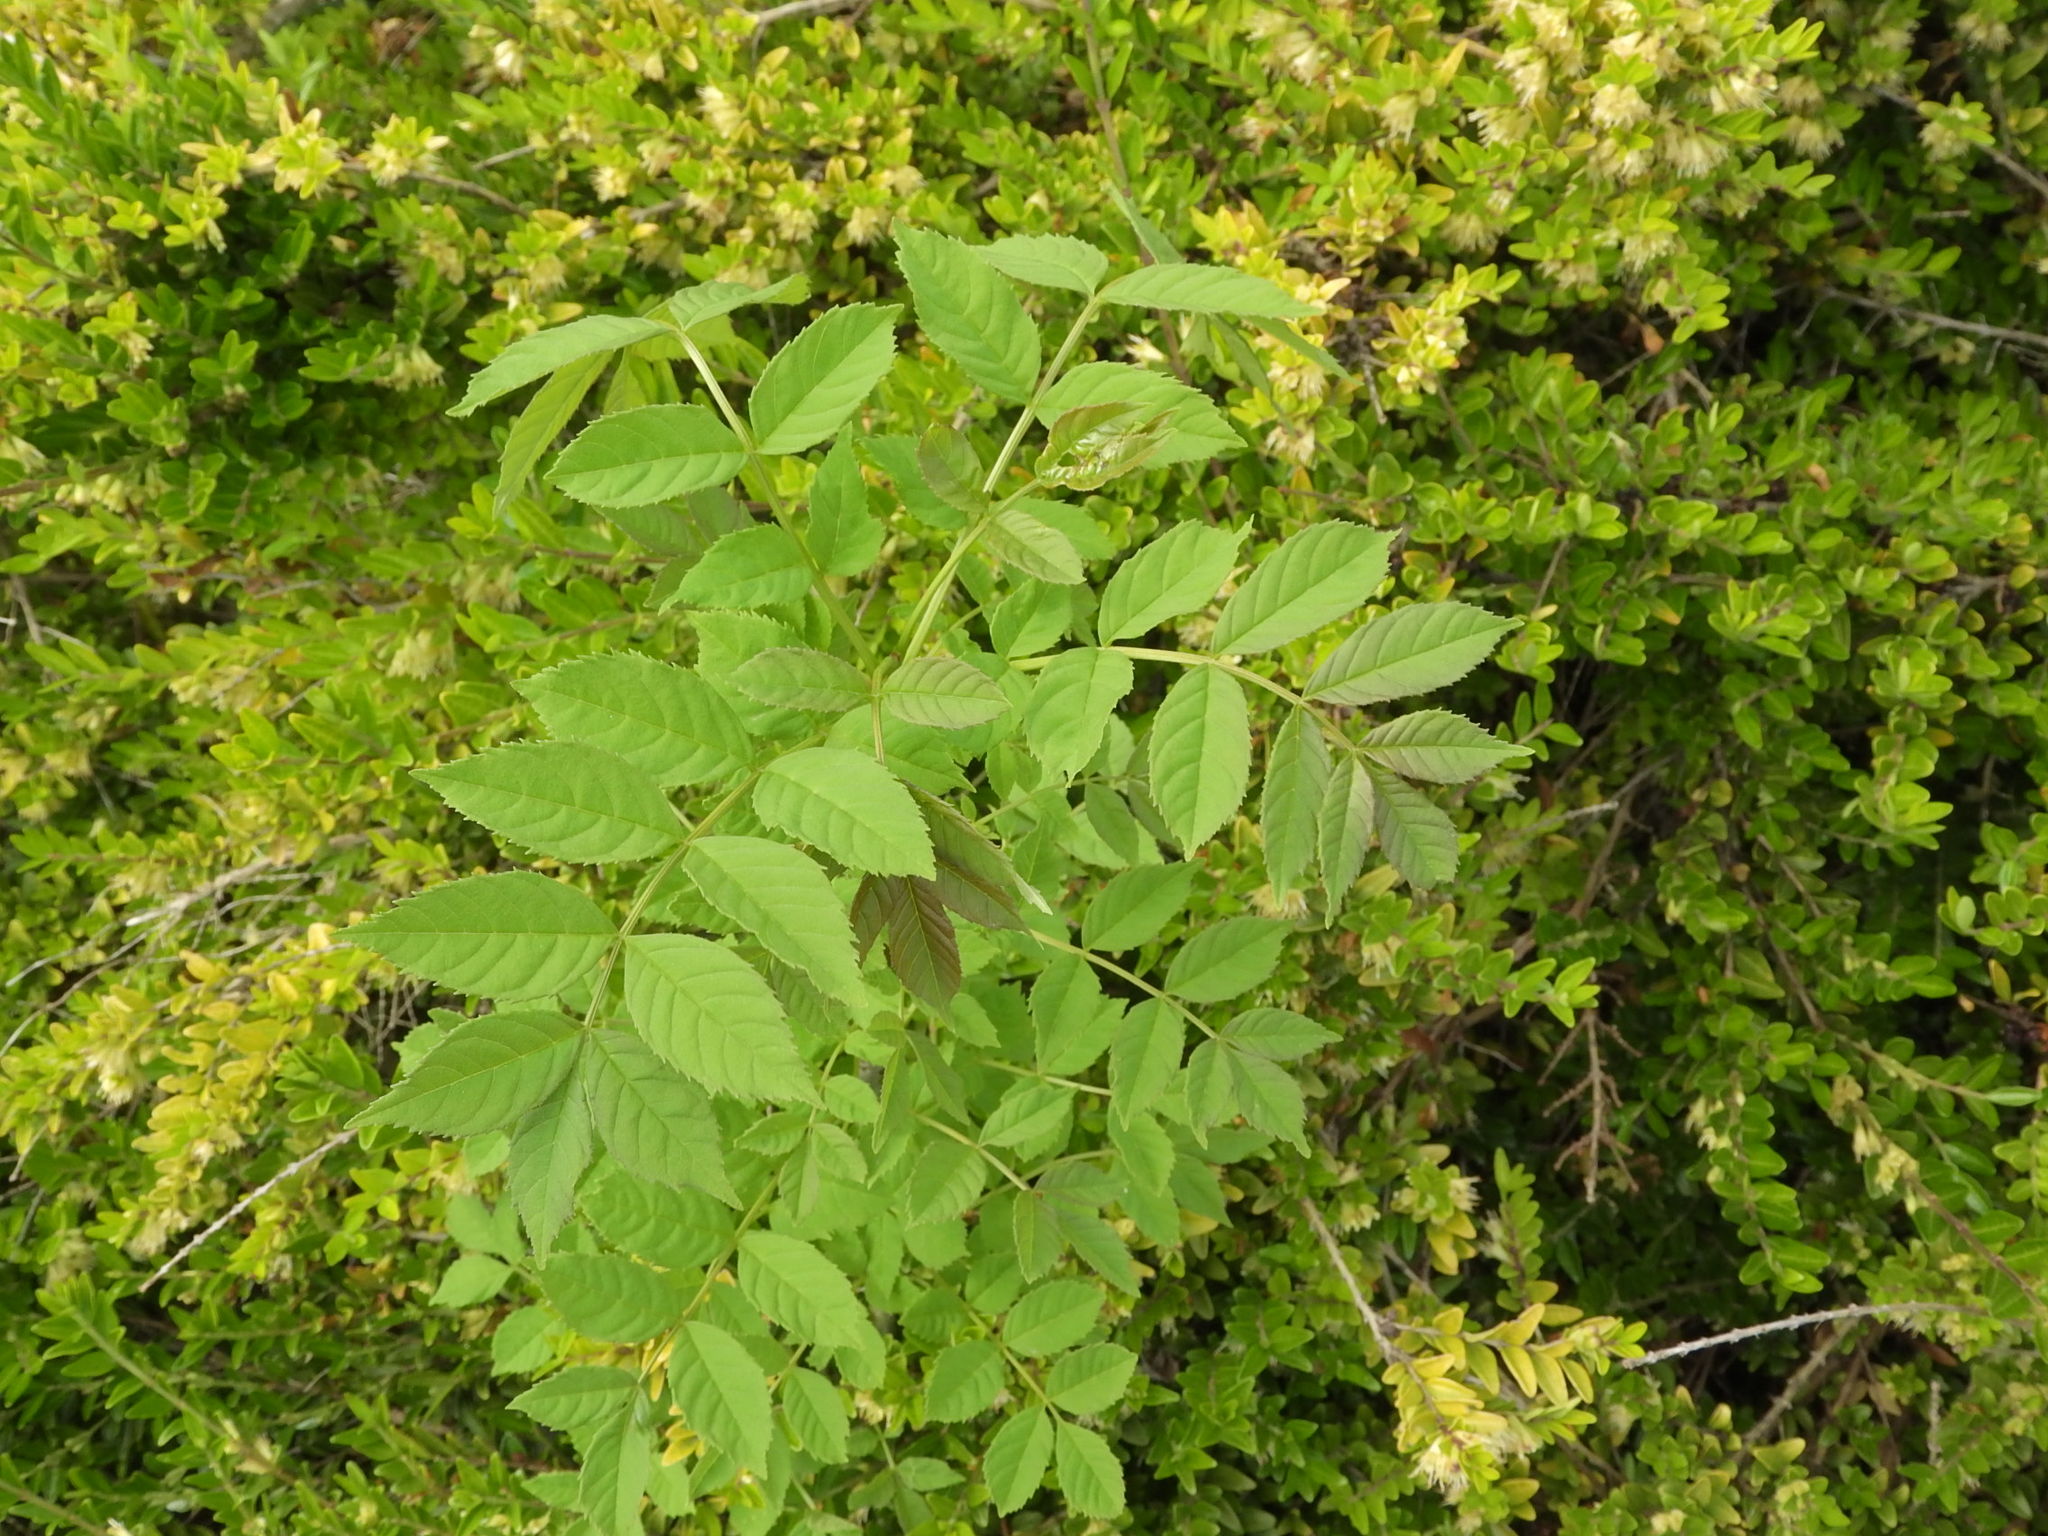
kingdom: Plantae
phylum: Tracheophyta
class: Magnoliopsida
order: Lamiales
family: Oleaceae
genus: Fraxinus
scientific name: Fraxinus excelsior
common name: European ash
